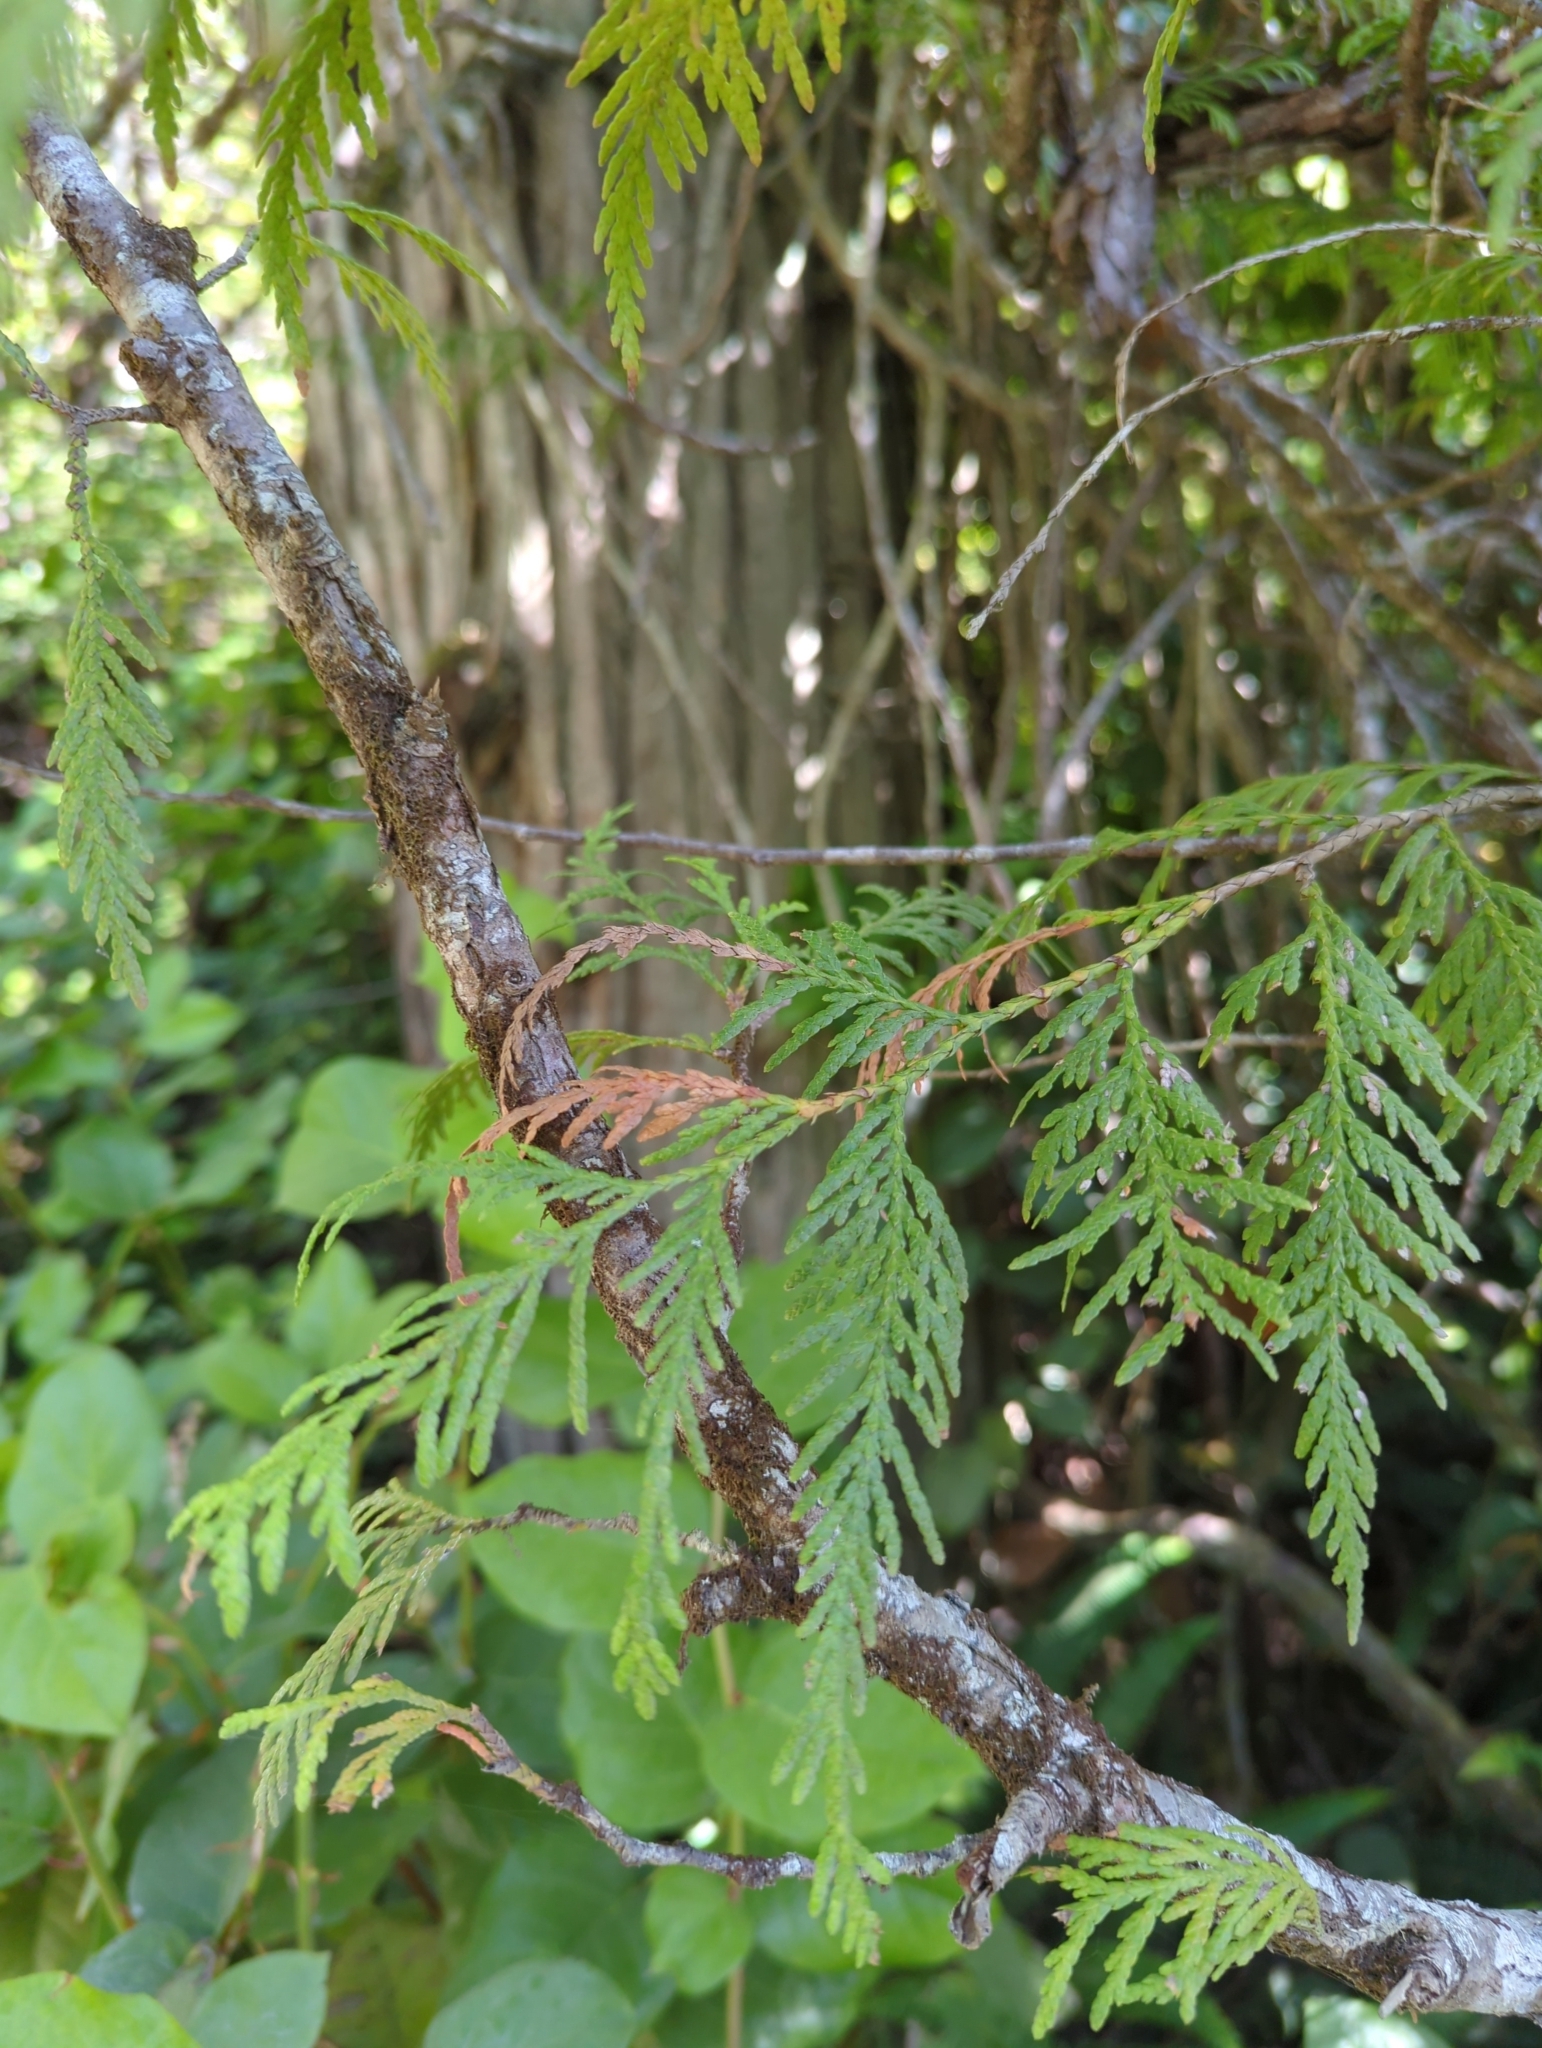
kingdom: Plantae
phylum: Tracheophyta
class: Pinopsida
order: Pinales
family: Cupressaceae
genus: Thuja
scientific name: Thuja plicata
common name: Western red-cedar
